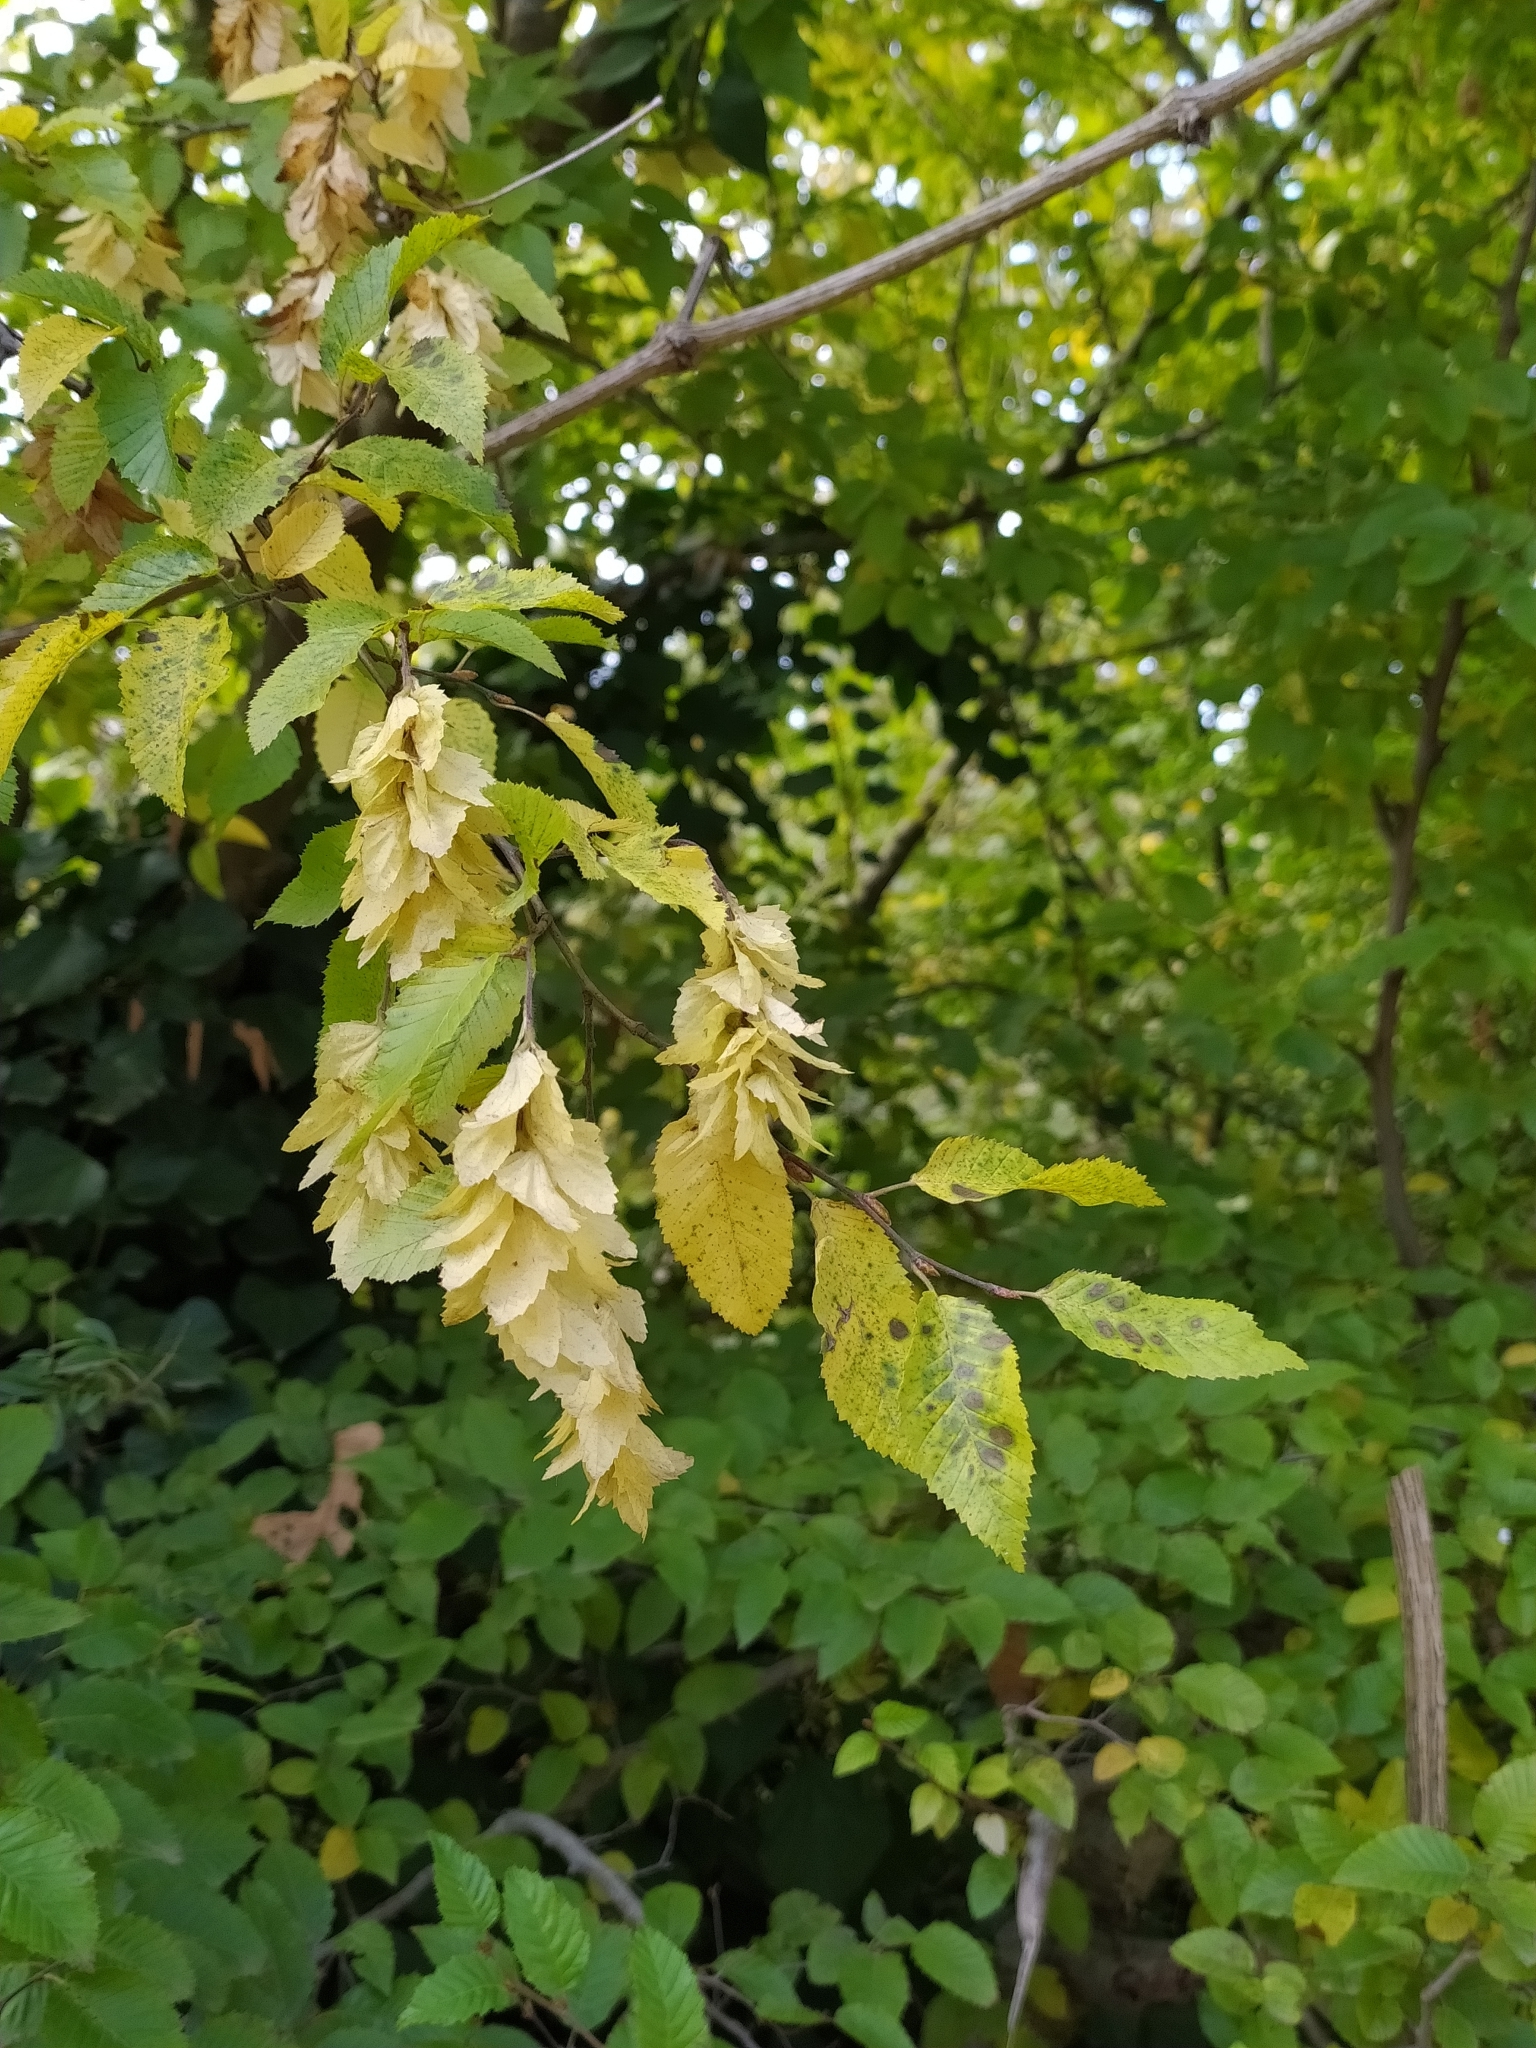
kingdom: Plantae
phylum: Tracheophyta
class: Magnoliopsida
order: Fagales
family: Betulaceae
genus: Ostrya
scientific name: Ostrya carpinifolia
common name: European hop-hornbeam
